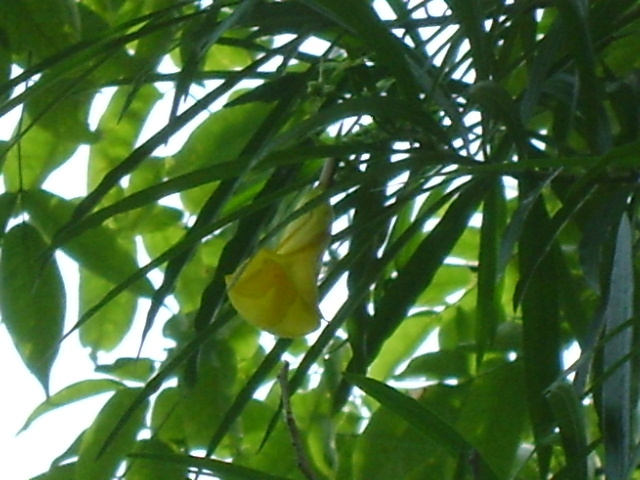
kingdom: Plantae
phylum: Tracheophyta
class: Magnoliopsida
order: Gentianales
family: Apocynaceae
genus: Cascabela
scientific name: Cascabela thevetia
